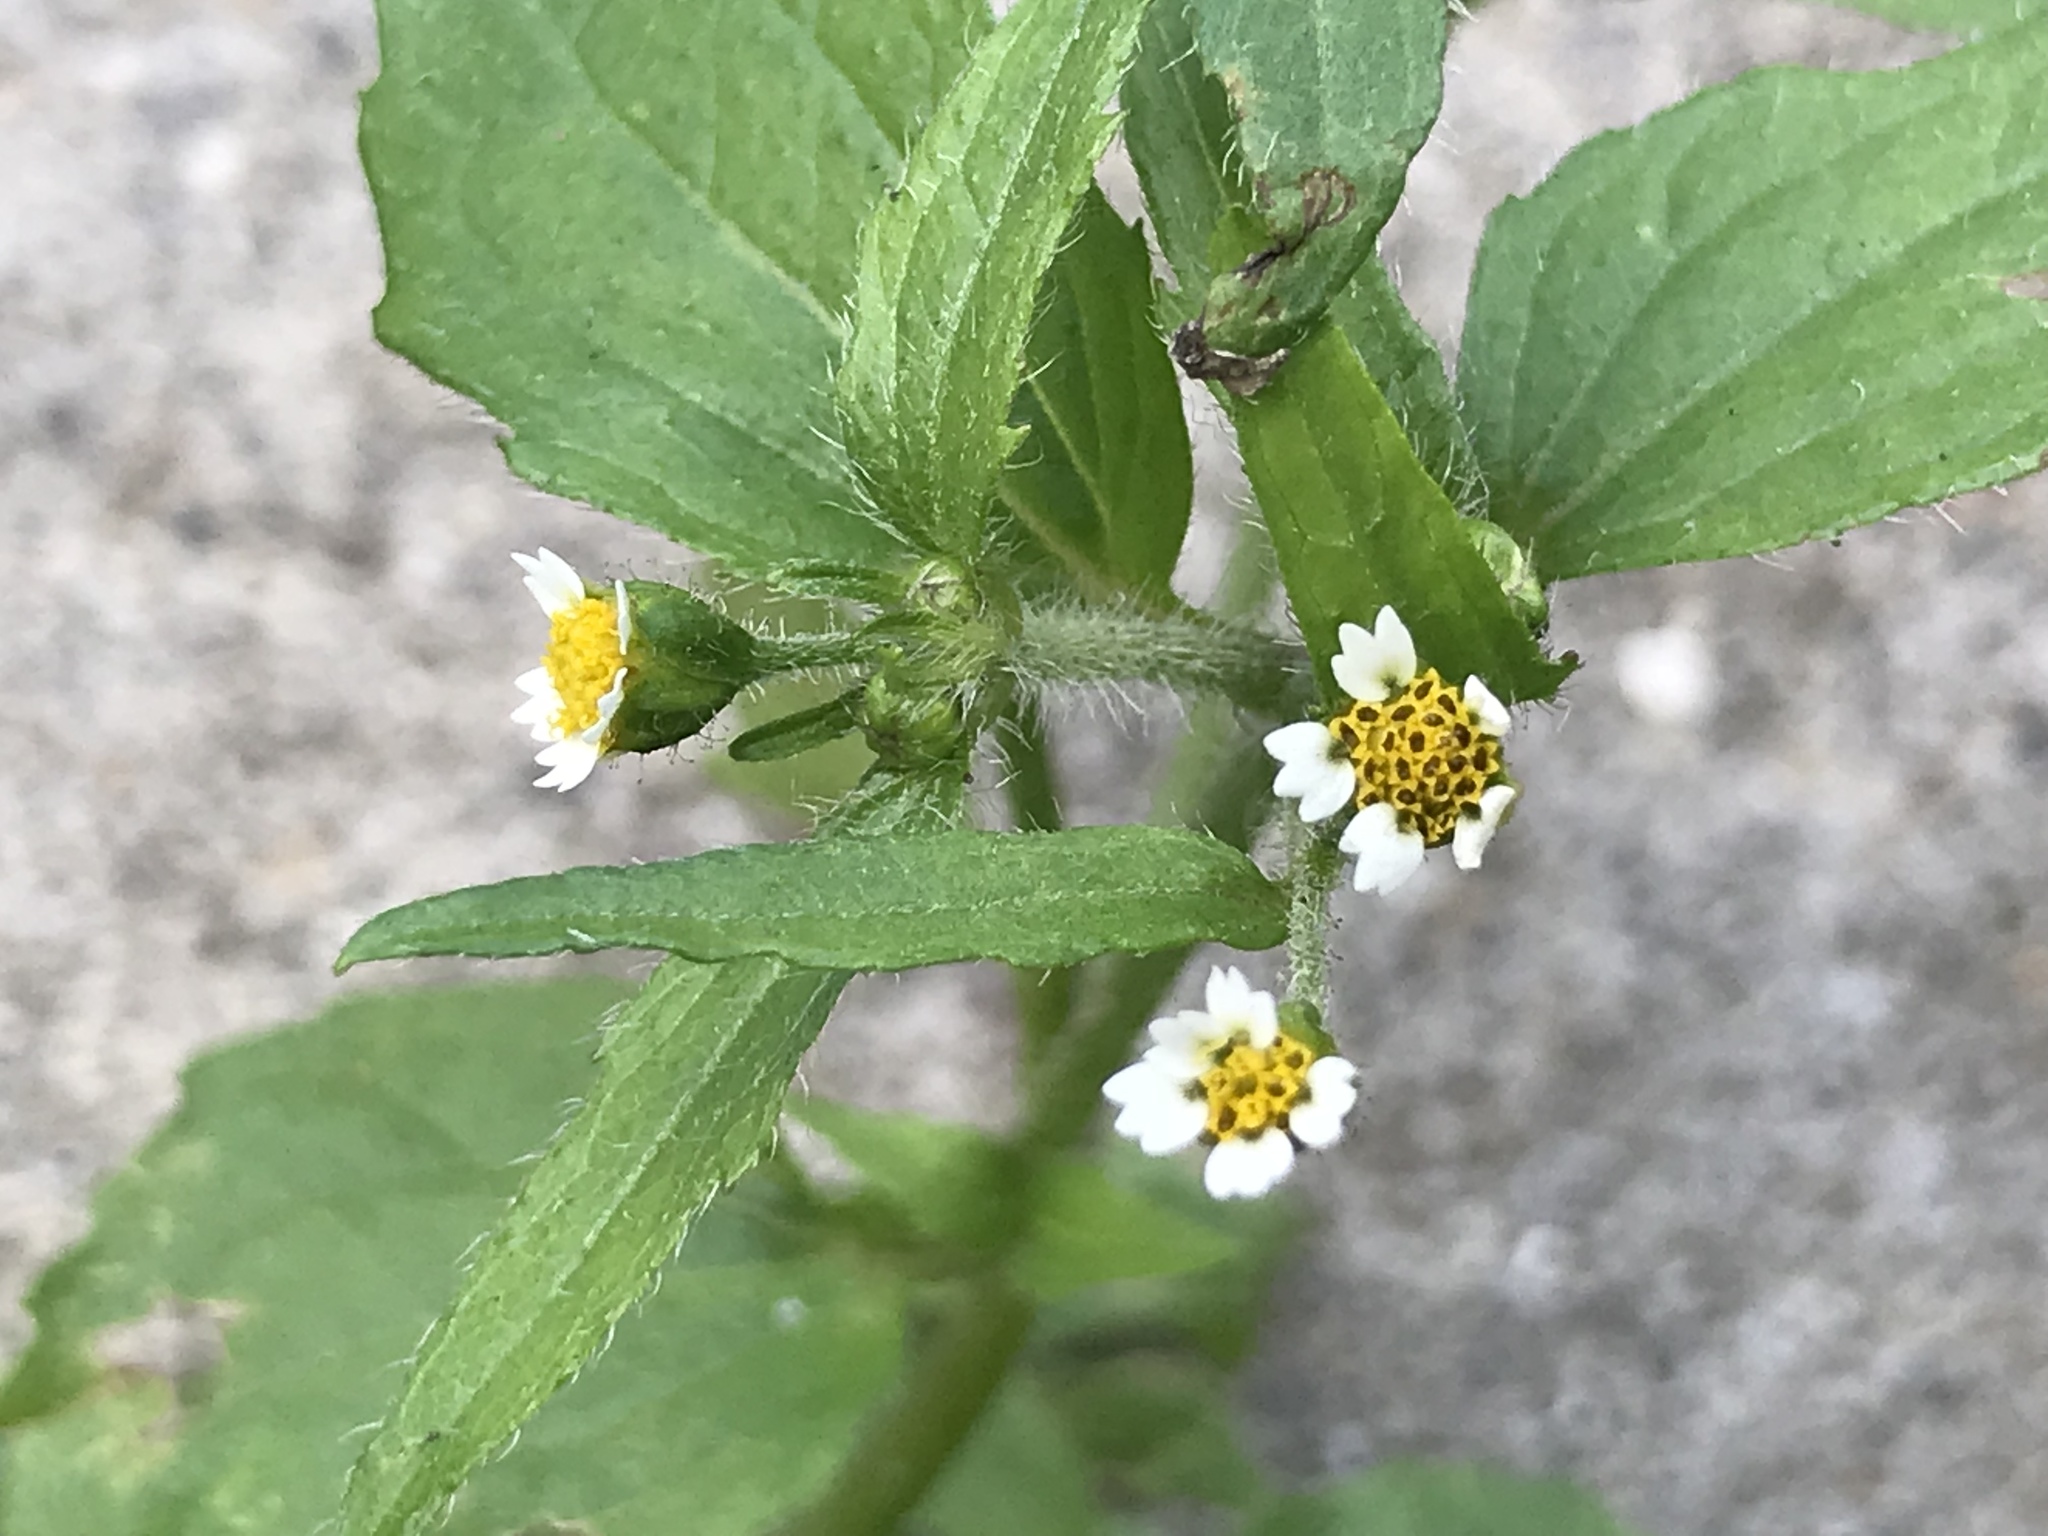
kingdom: Plantae
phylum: Tracheophyta
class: Magnoliopsida
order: Asterales
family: Asteraceae
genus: Galinsoga
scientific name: Galinsoga quadriradiata
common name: Shaggy soldier
